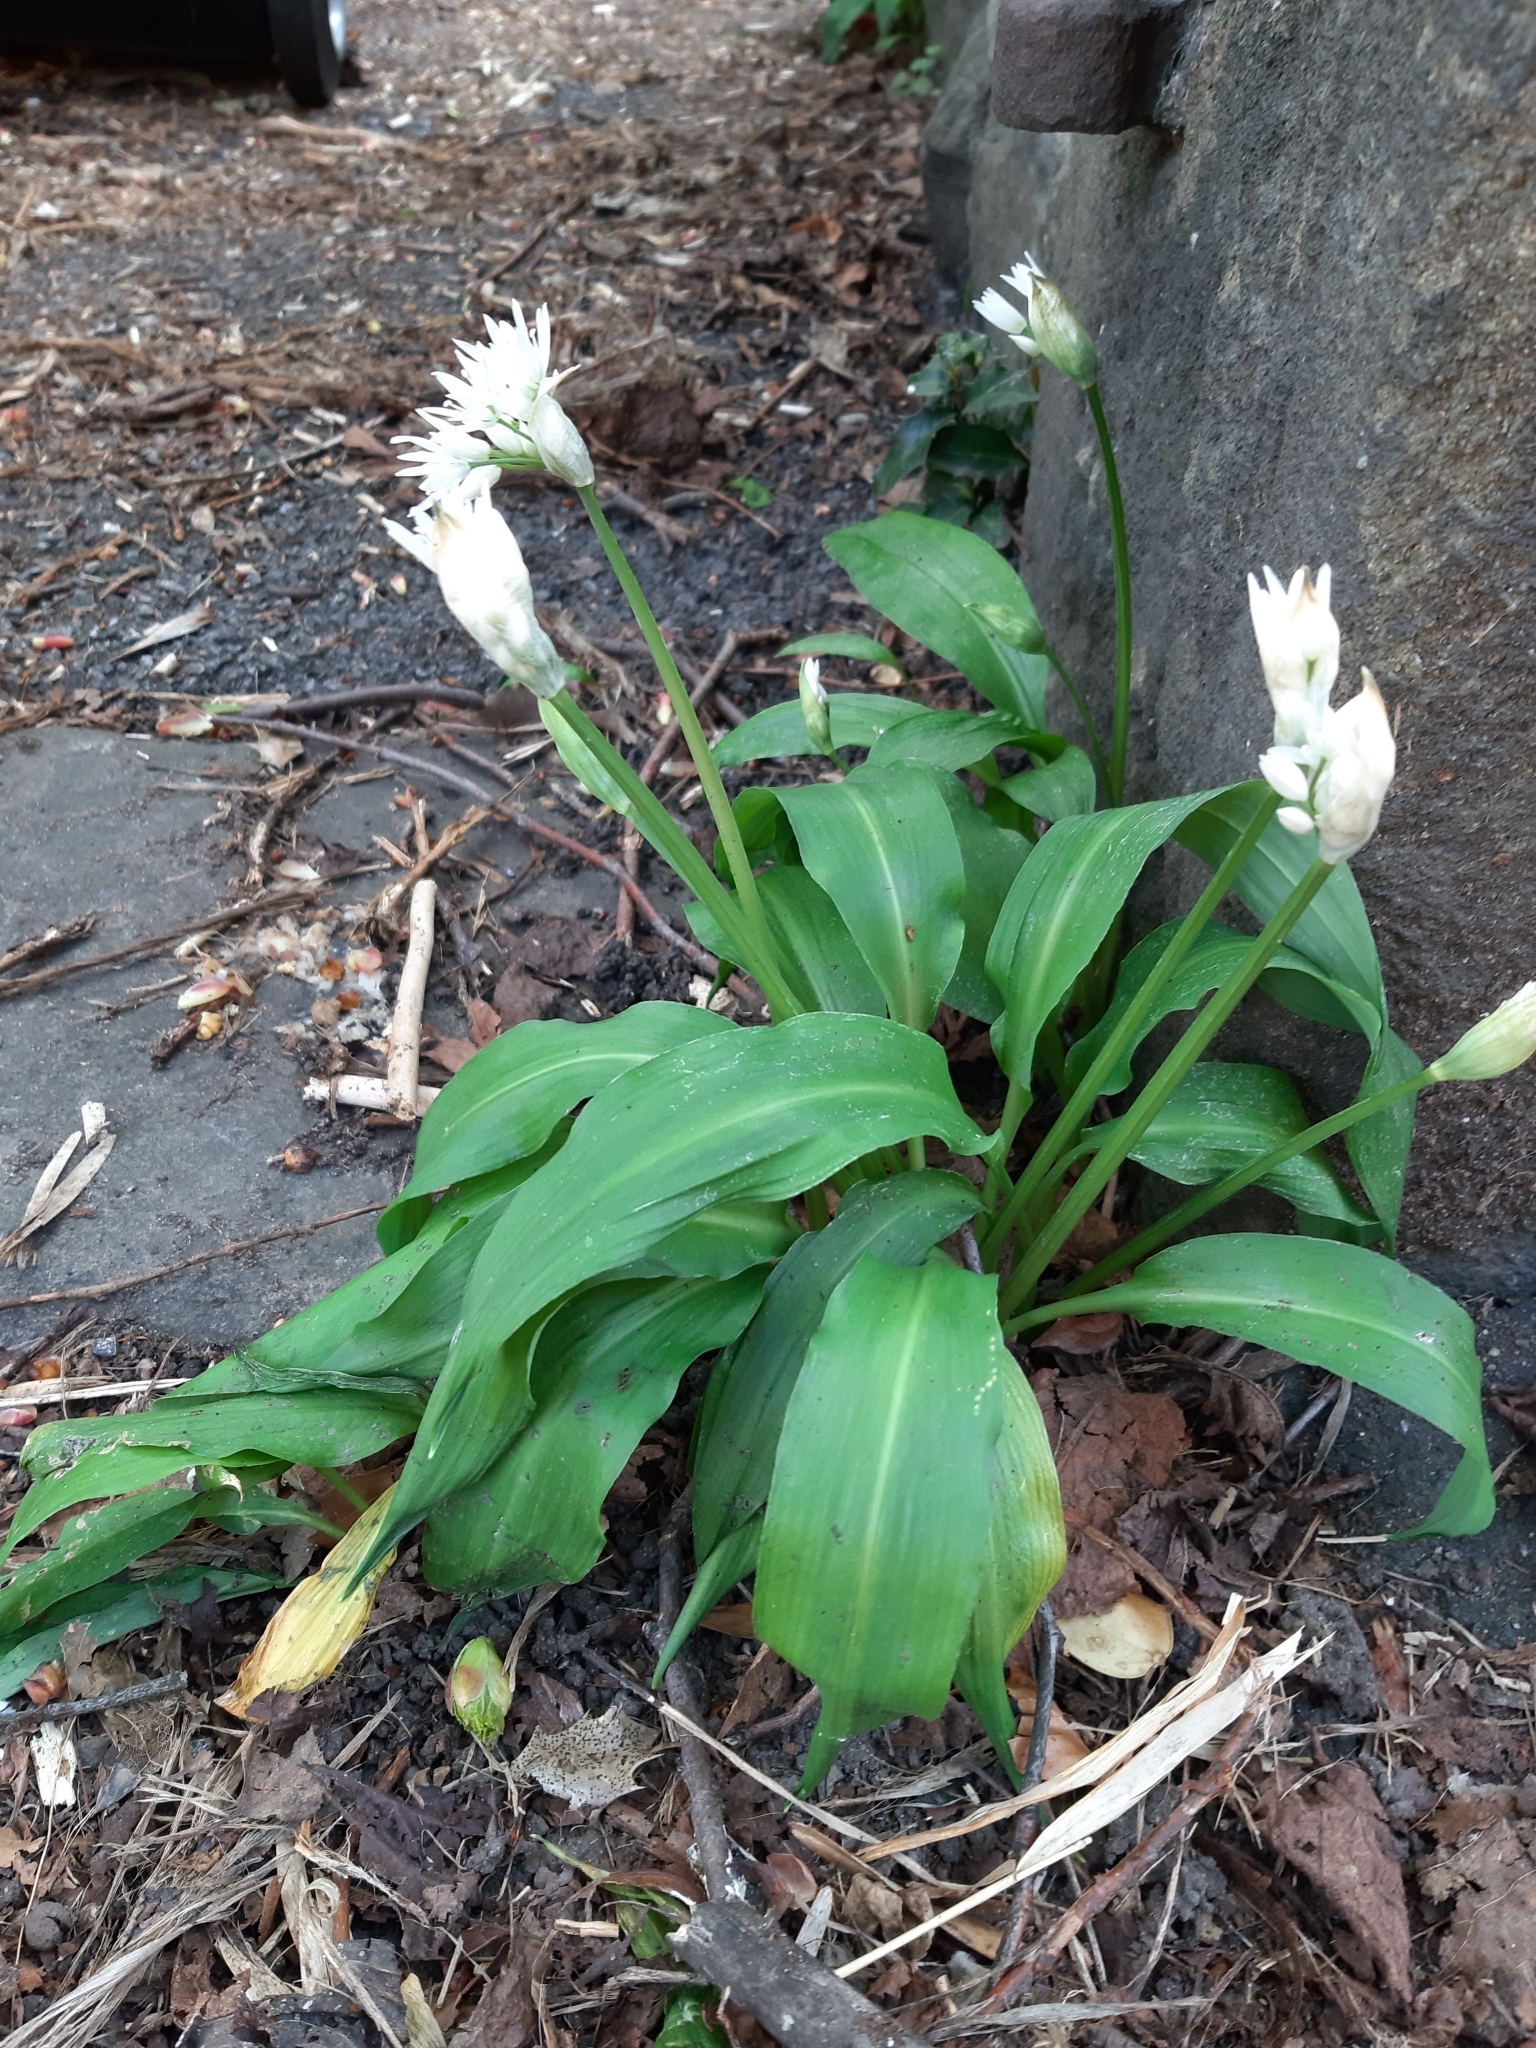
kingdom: Plantae
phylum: Tracheophyta
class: Liliopsida
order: Asparagales
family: Amaryllidaceae
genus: Allium
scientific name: Allium ursinum
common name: Ramsons
